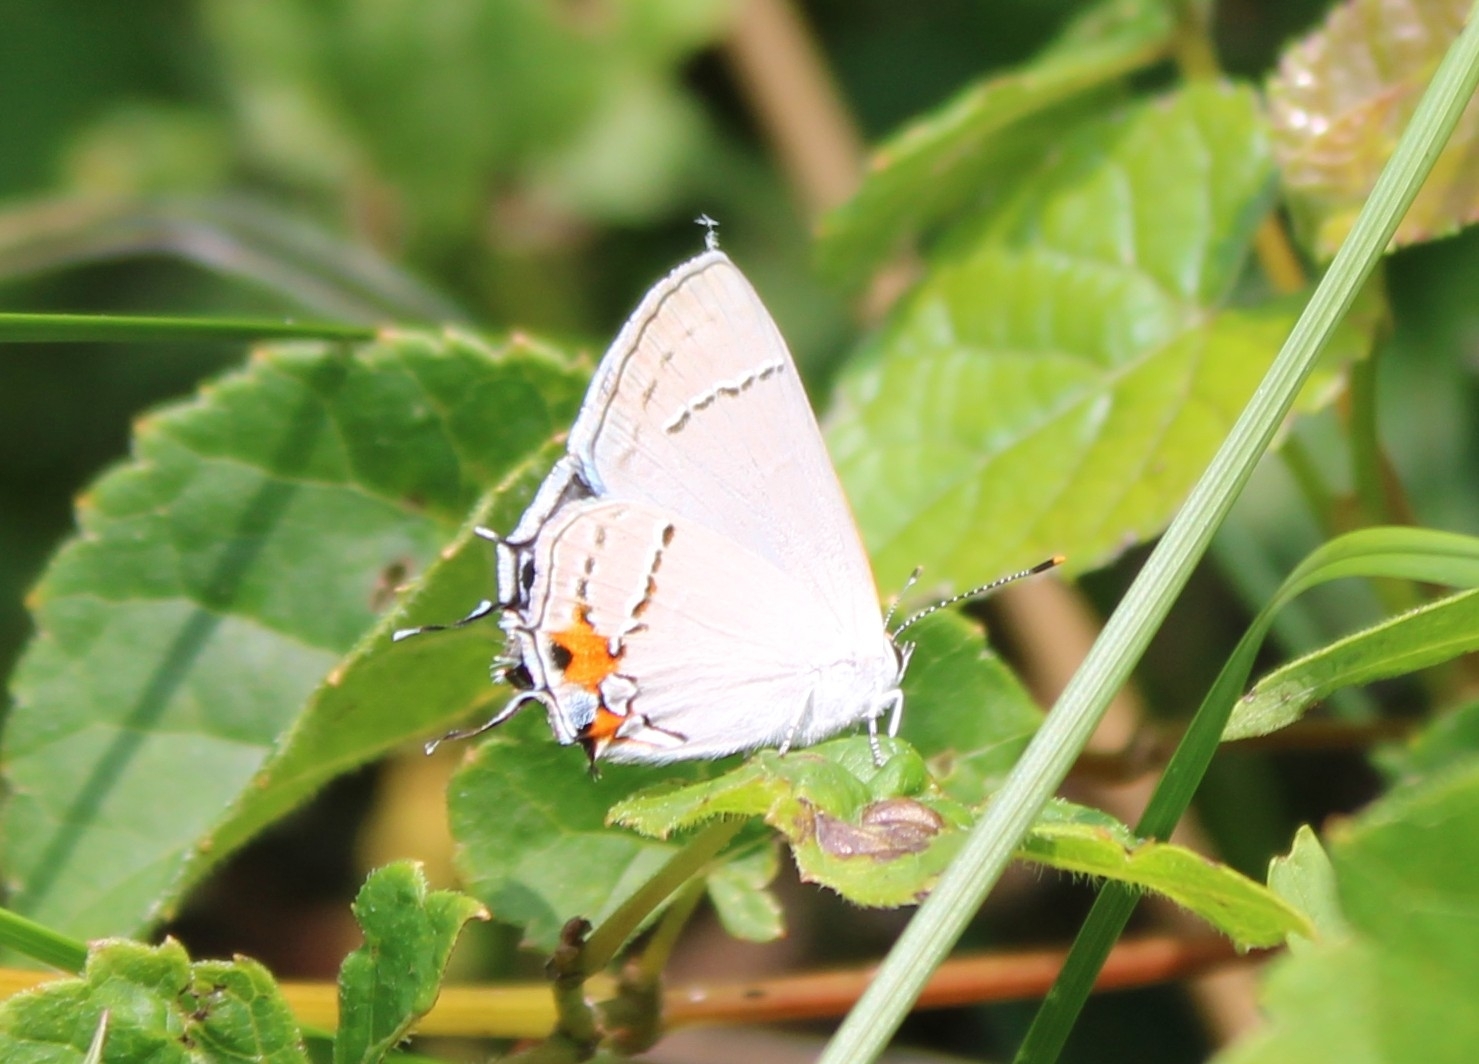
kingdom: Animalia
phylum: Arthropoda
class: Insecta
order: Lepidoptera
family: Lycaenidae
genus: Strymon
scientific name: Strymon melinus
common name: Gray hairstreak
